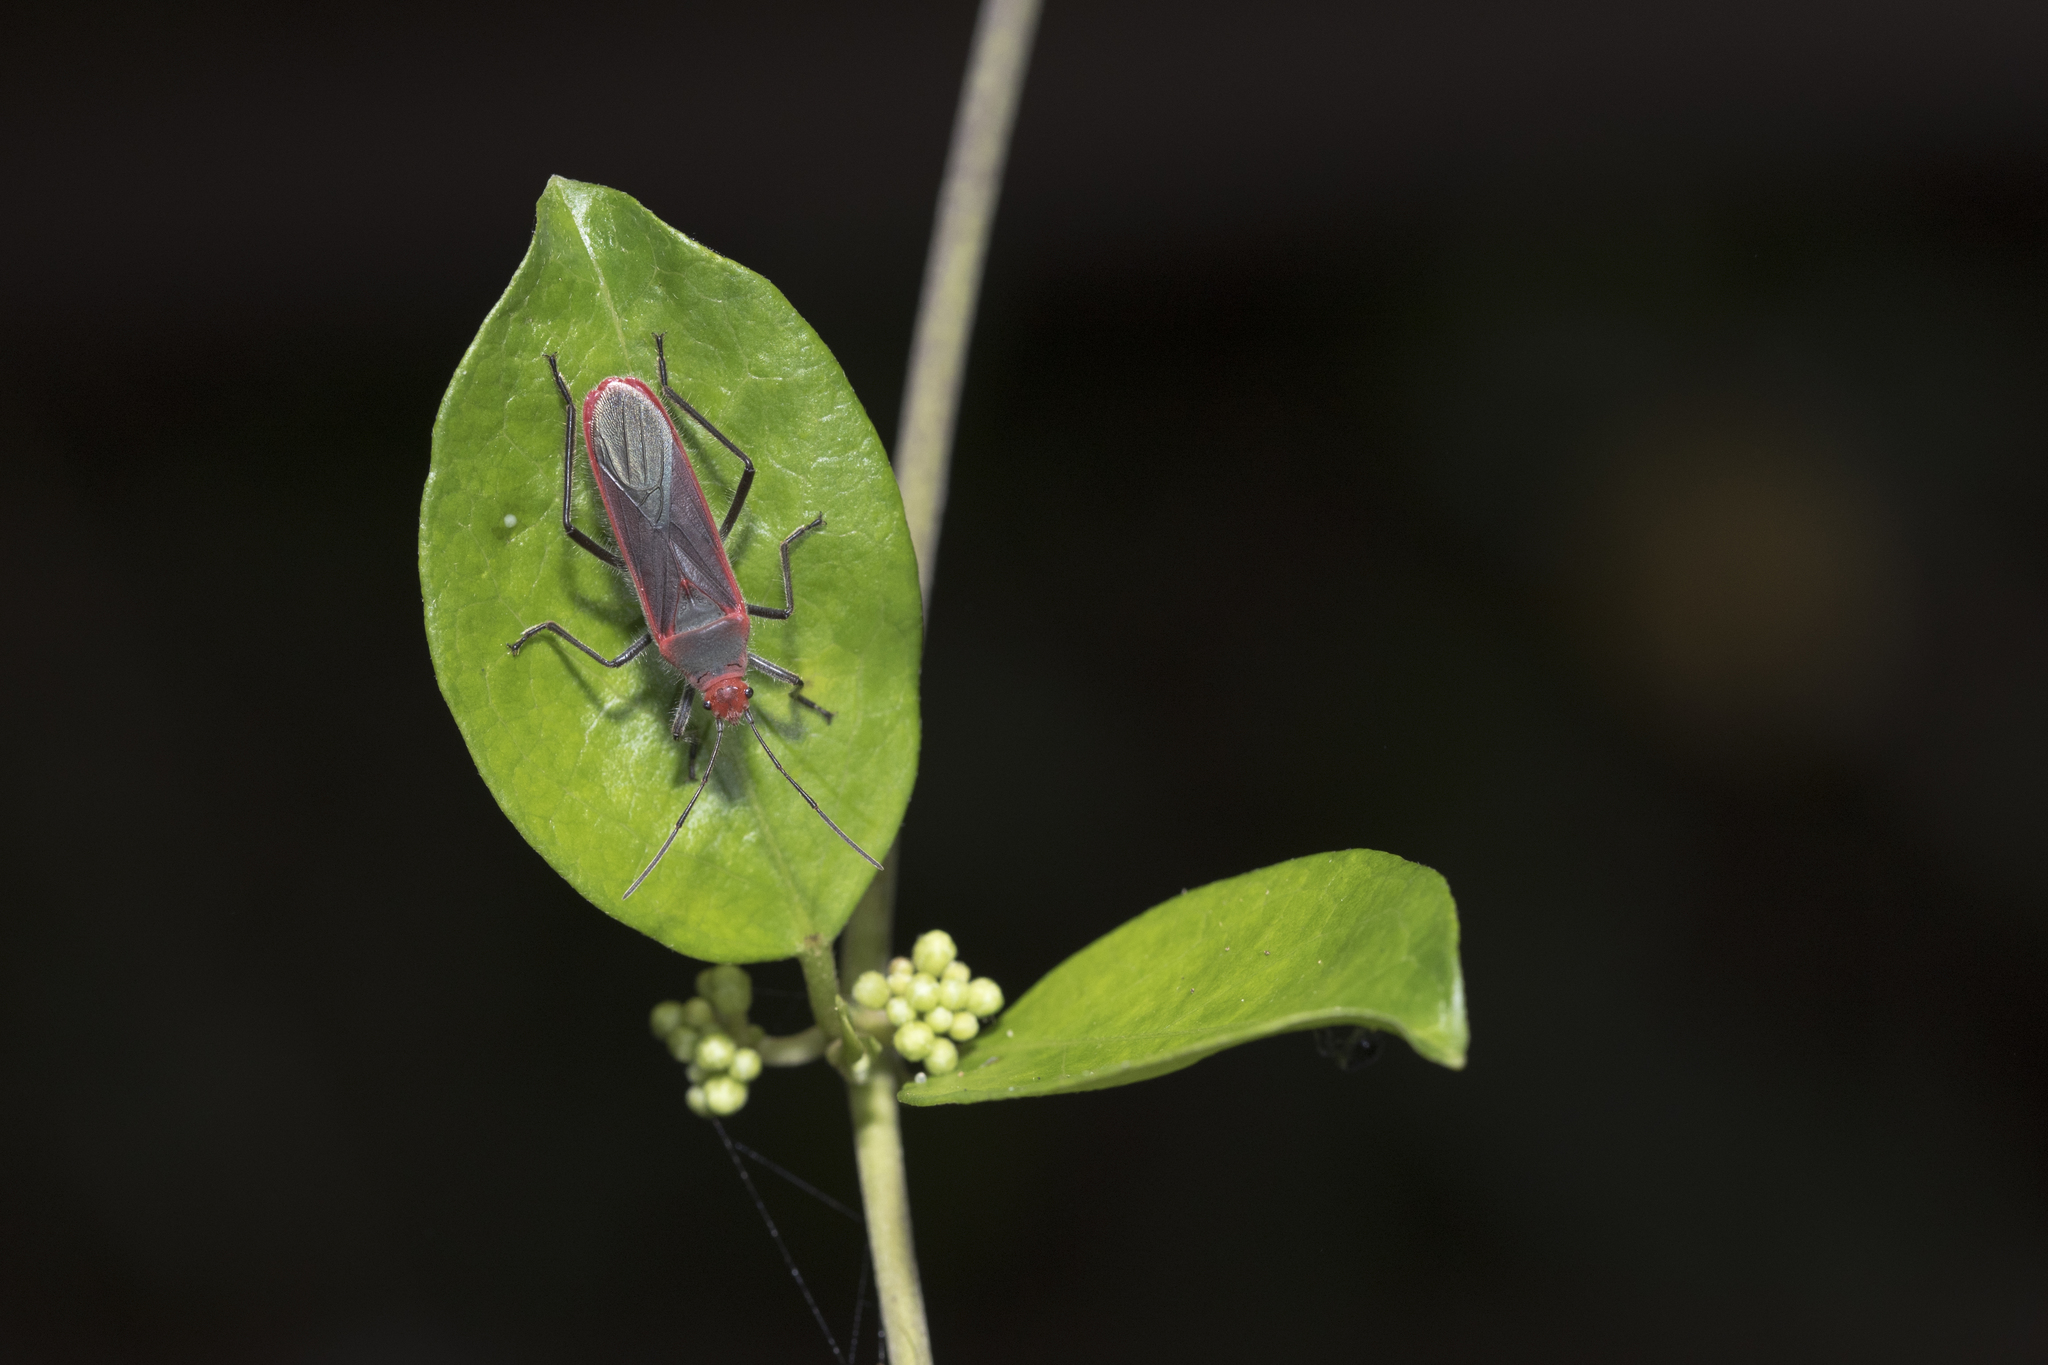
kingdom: Animalia
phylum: Arthropoda
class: Insecta
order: Hemiptera
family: Lygaeidae
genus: Thunbergia
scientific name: Thunbergia marginatus
